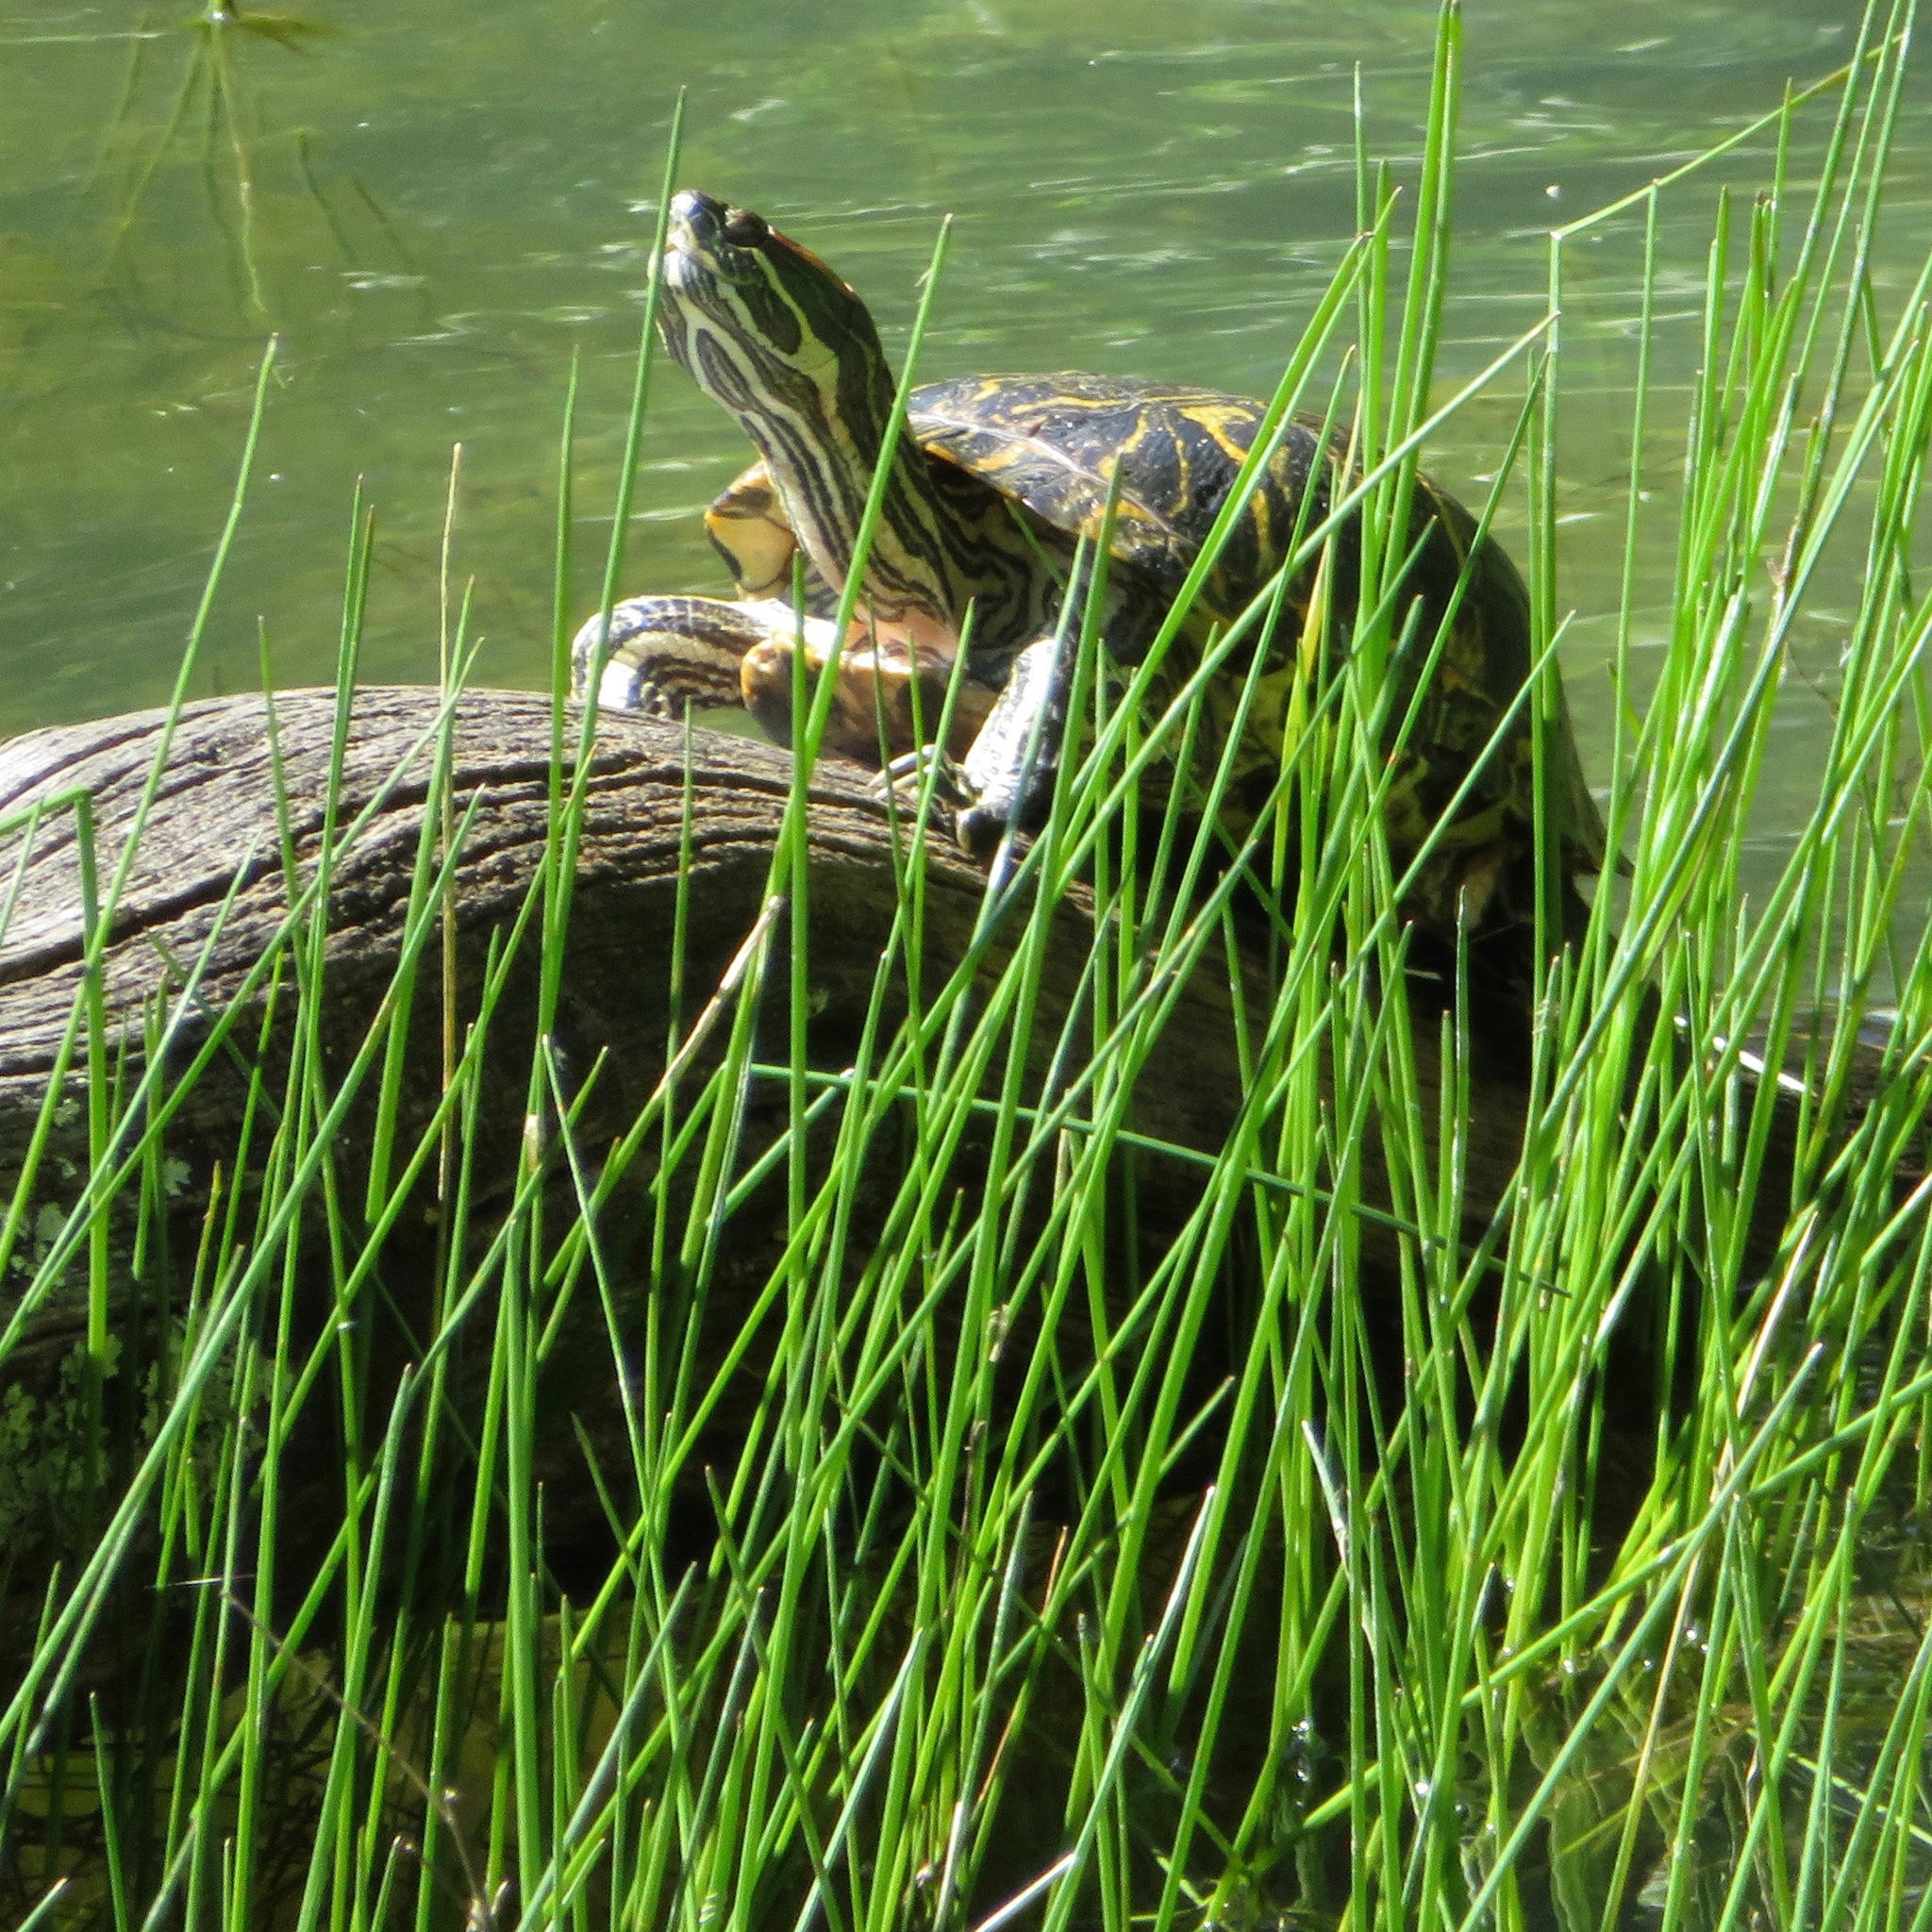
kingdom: Animalia
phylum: Chordata
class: Testudines
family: Emydidae
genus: Trachemys
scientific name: Trachemys scripta
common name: Slider
